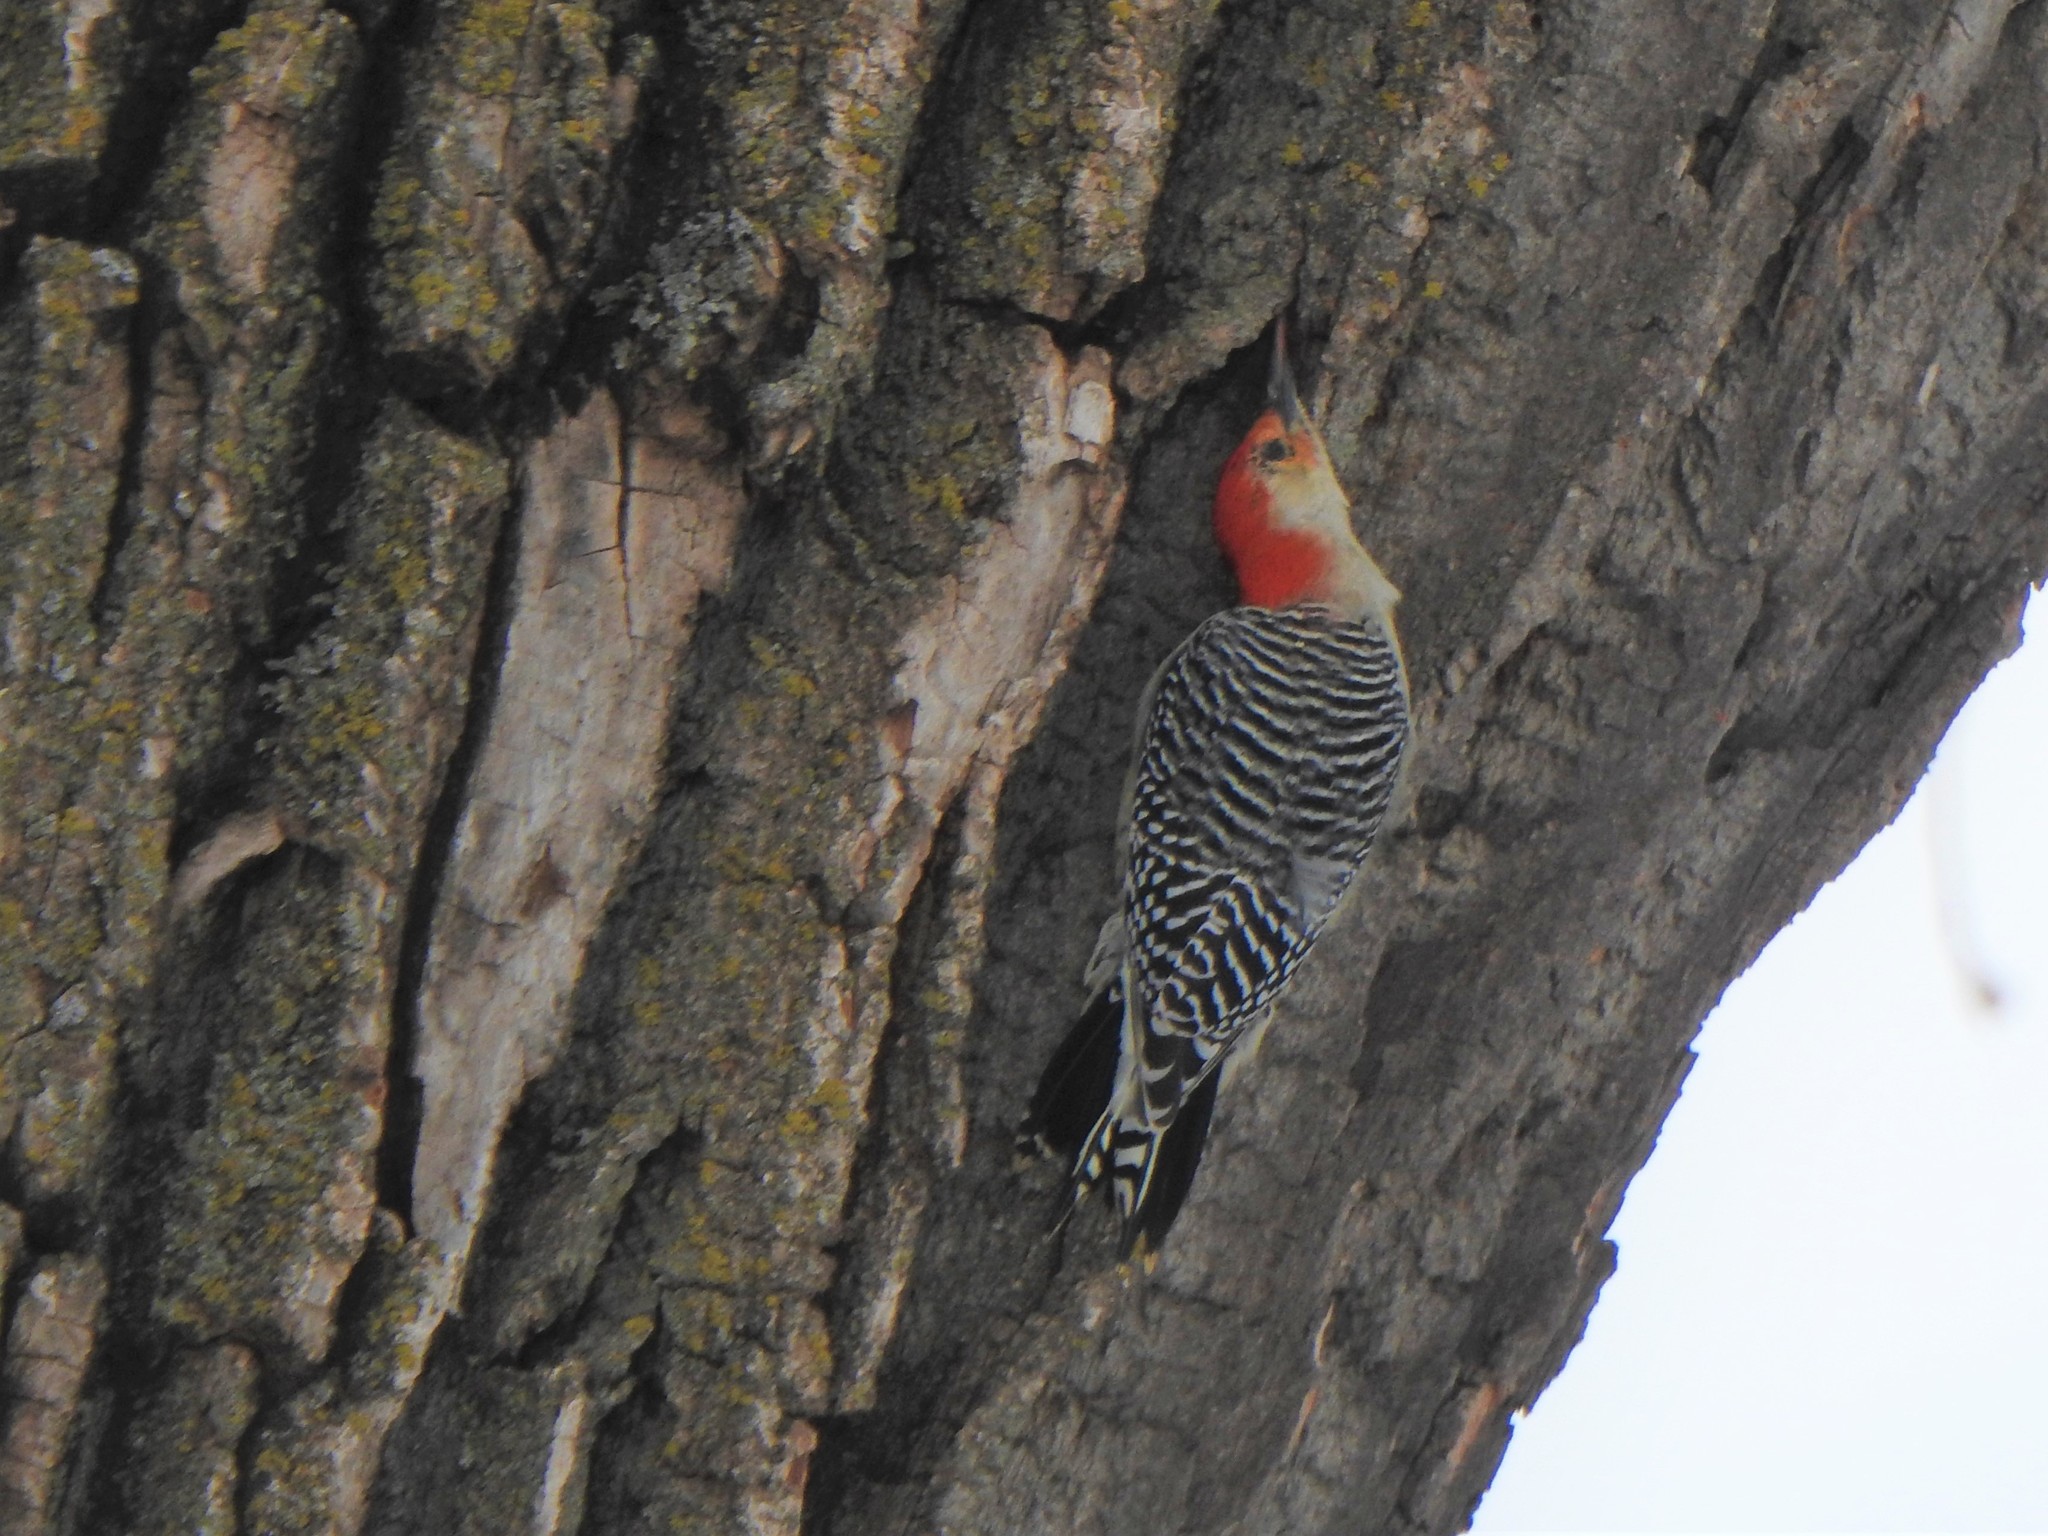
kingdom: Animalia
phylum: Chordata
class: Aves
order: Piciformes
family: Picidae
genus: Melanerpes
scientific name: Melanerpes carolinus
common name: Red-bellied woodpecker
